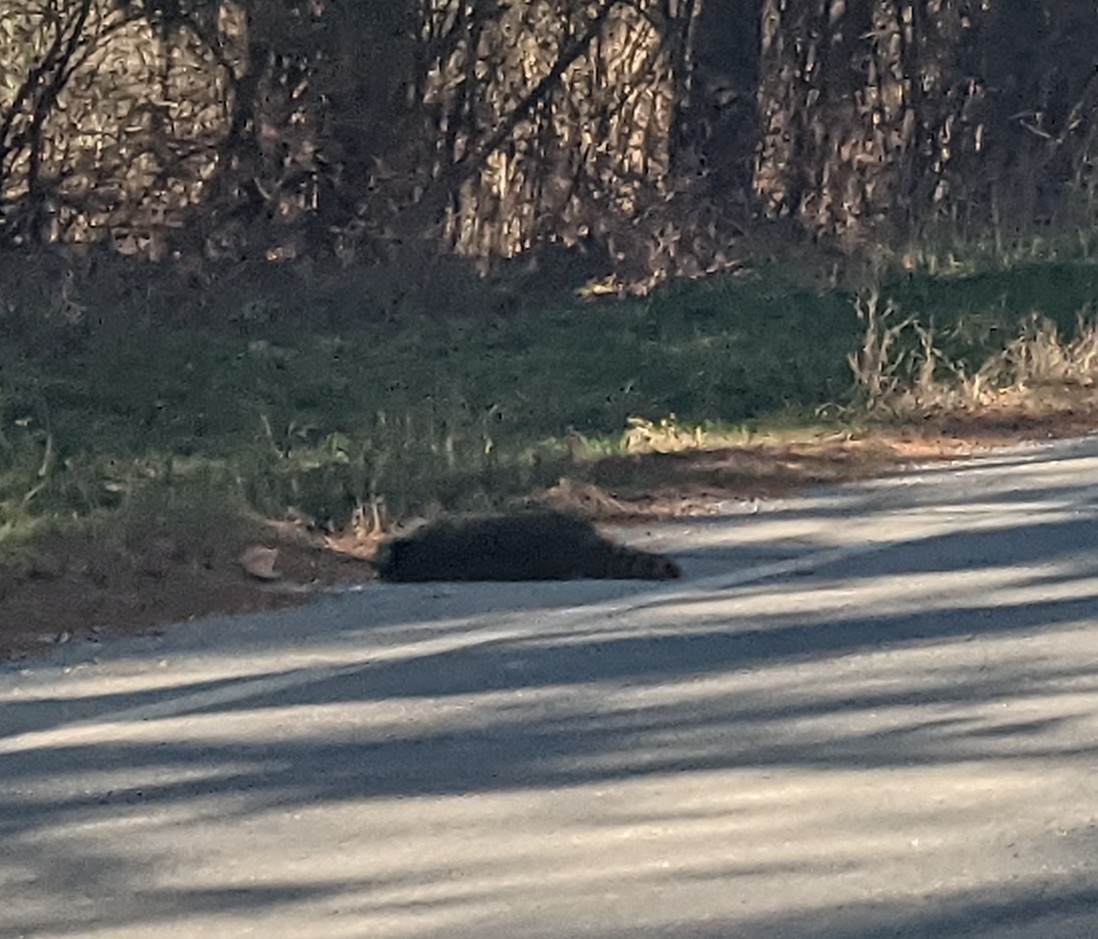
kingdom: Animalia
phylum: Chordata
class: Mammalia
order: Carnivora
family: Procyonidae
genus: Procyon
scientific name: Procyon lotor
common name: Raccoon
